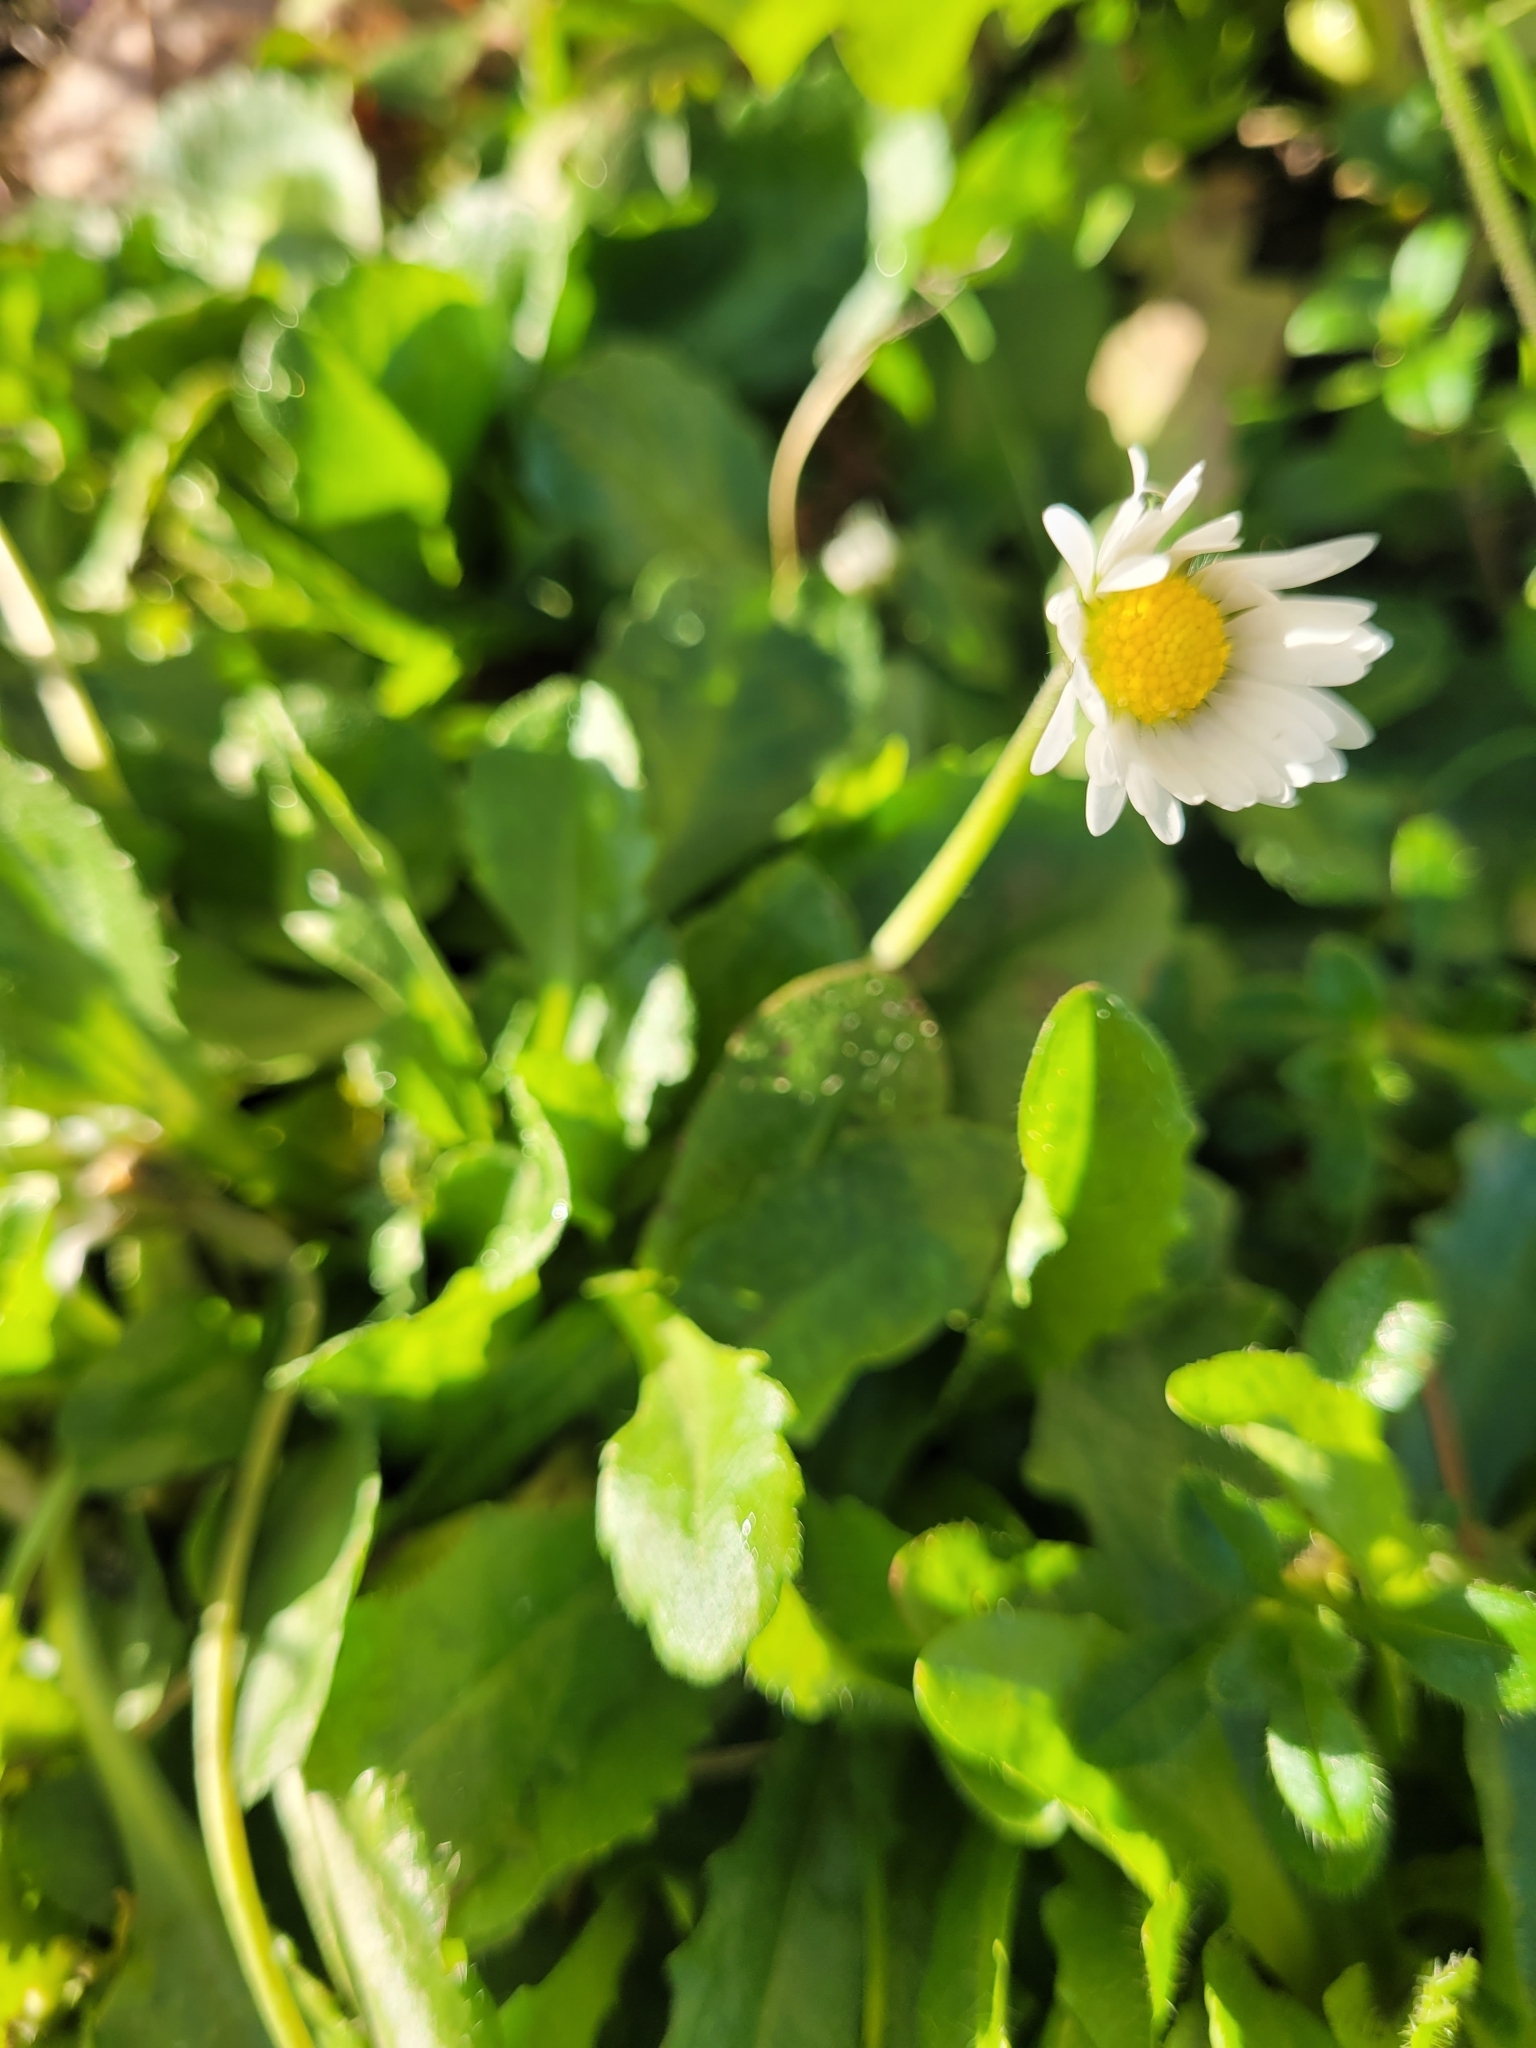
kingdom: Plantae
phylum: Tracheophyta
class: Magnoliopsida
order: Asterales
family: Asteraceae
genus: Bellis
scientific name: Bellis perennis
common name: Lawndaisy
